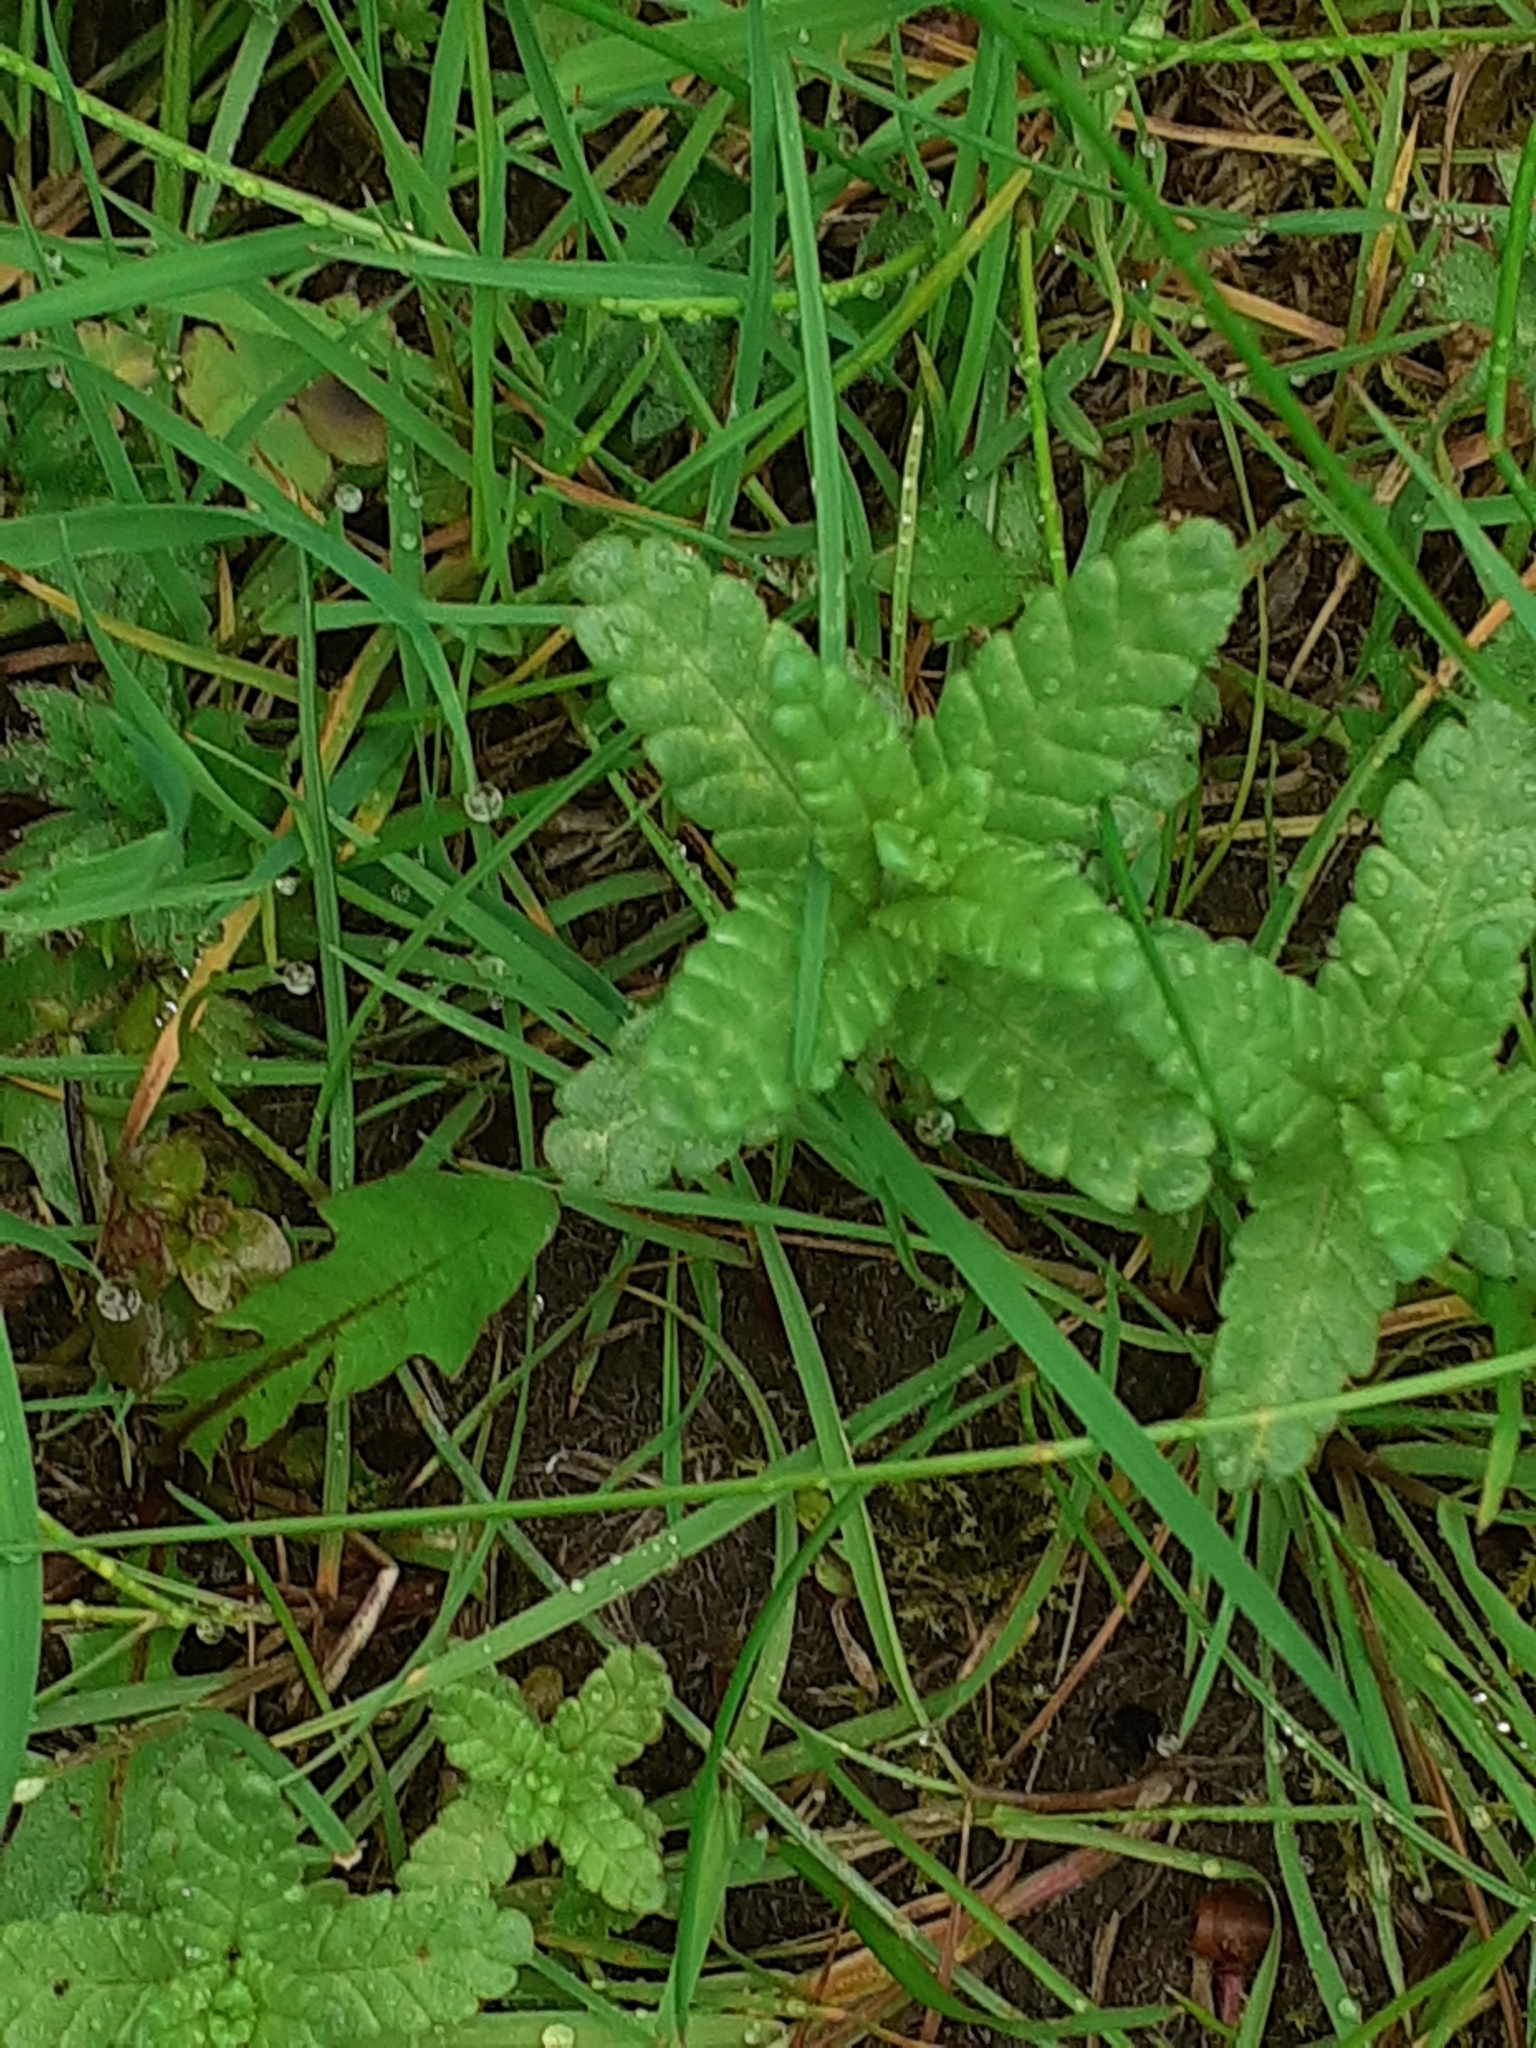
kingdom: Plantae
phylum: Tracheophyta
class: Magnoliopsida
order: Lamiales
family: Orobanchaceae
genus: Rhinanthus
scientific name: Rhinanthus minor
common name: Yellow-rattle
